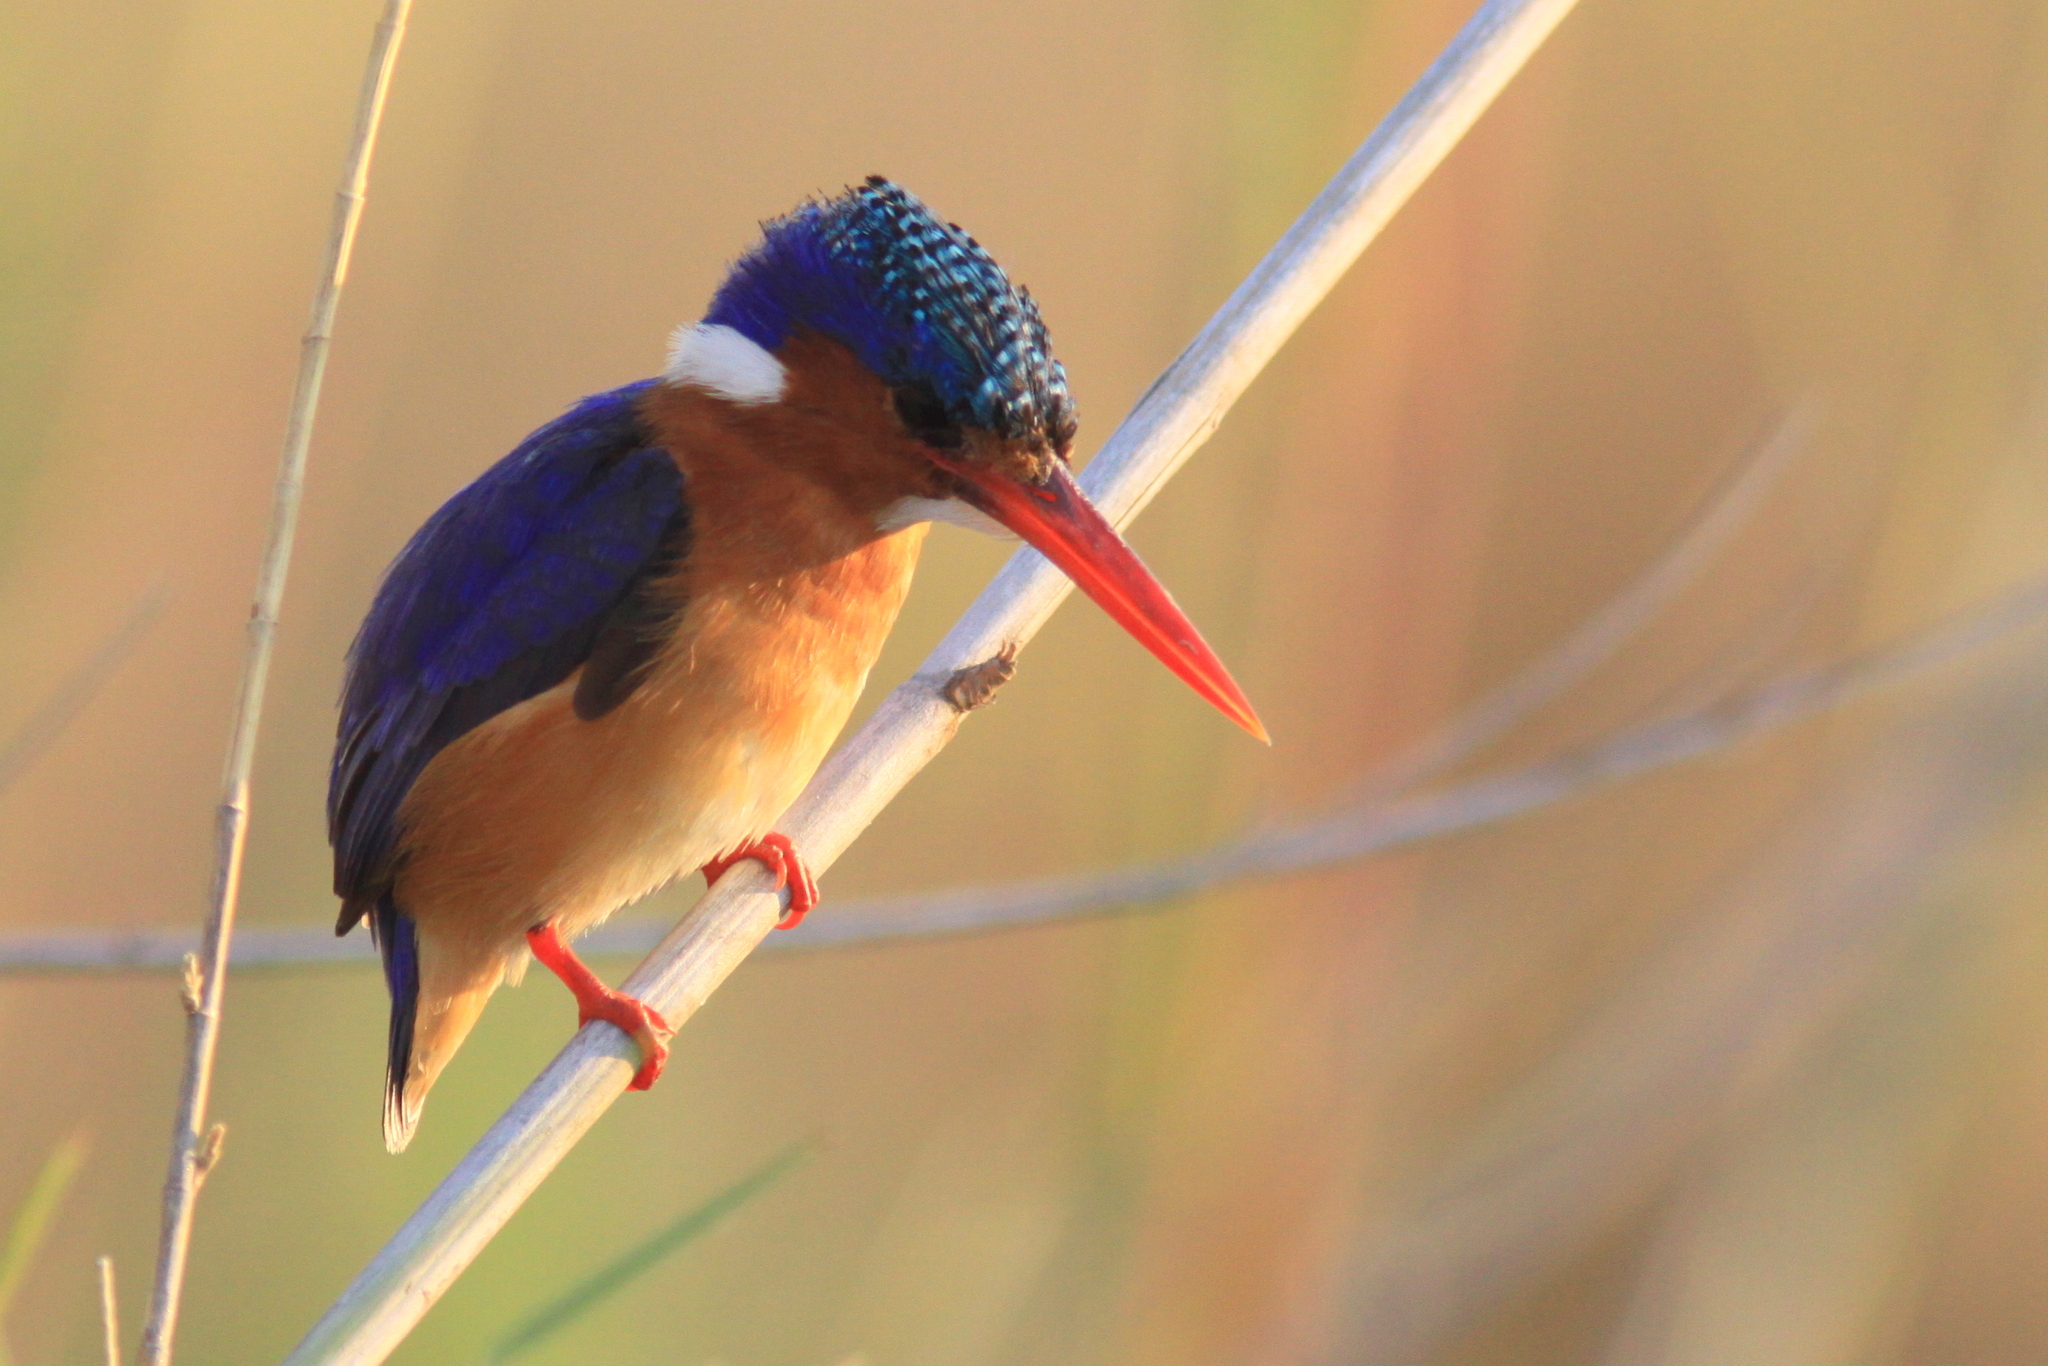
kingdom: Animalia
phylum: Chordata
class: Aves
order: Coraciiformes
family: Alcedinidae
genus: Corythornis
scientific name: Corythornis cristatus
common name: Malachite kingfisher
